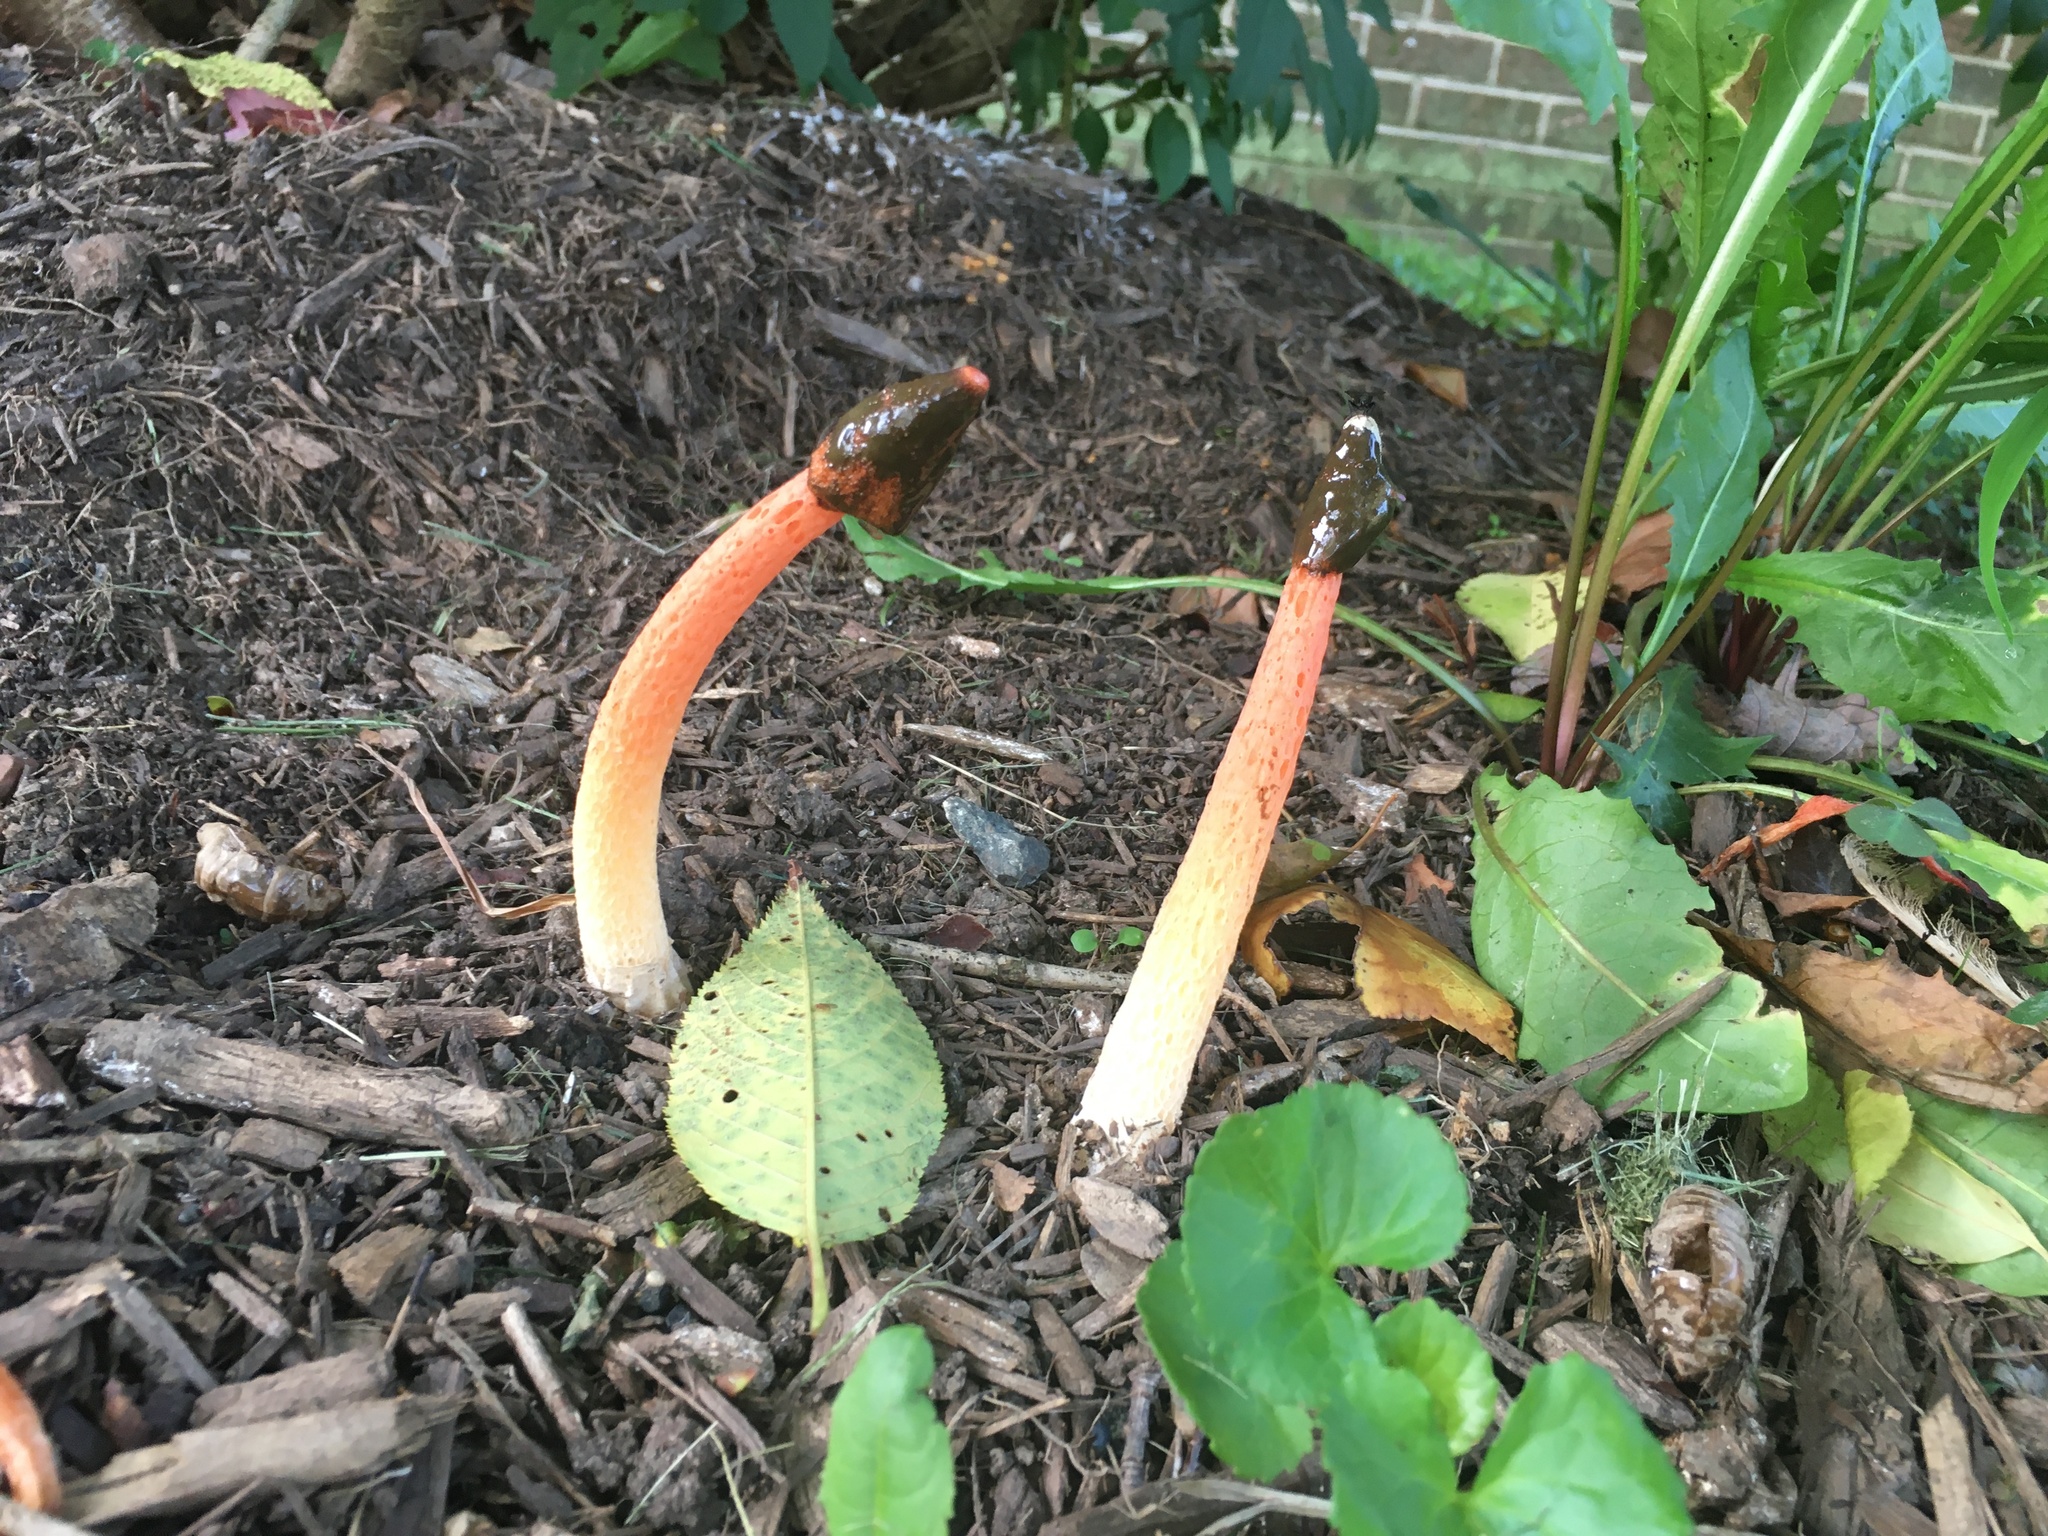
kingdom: Fungi
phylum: Basidiomycota
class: Agaricomycetes
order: Phallales
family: Phallaceae
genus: Phallus
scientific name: Phallus rugulosus
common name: Wrinkly stinkhorn
